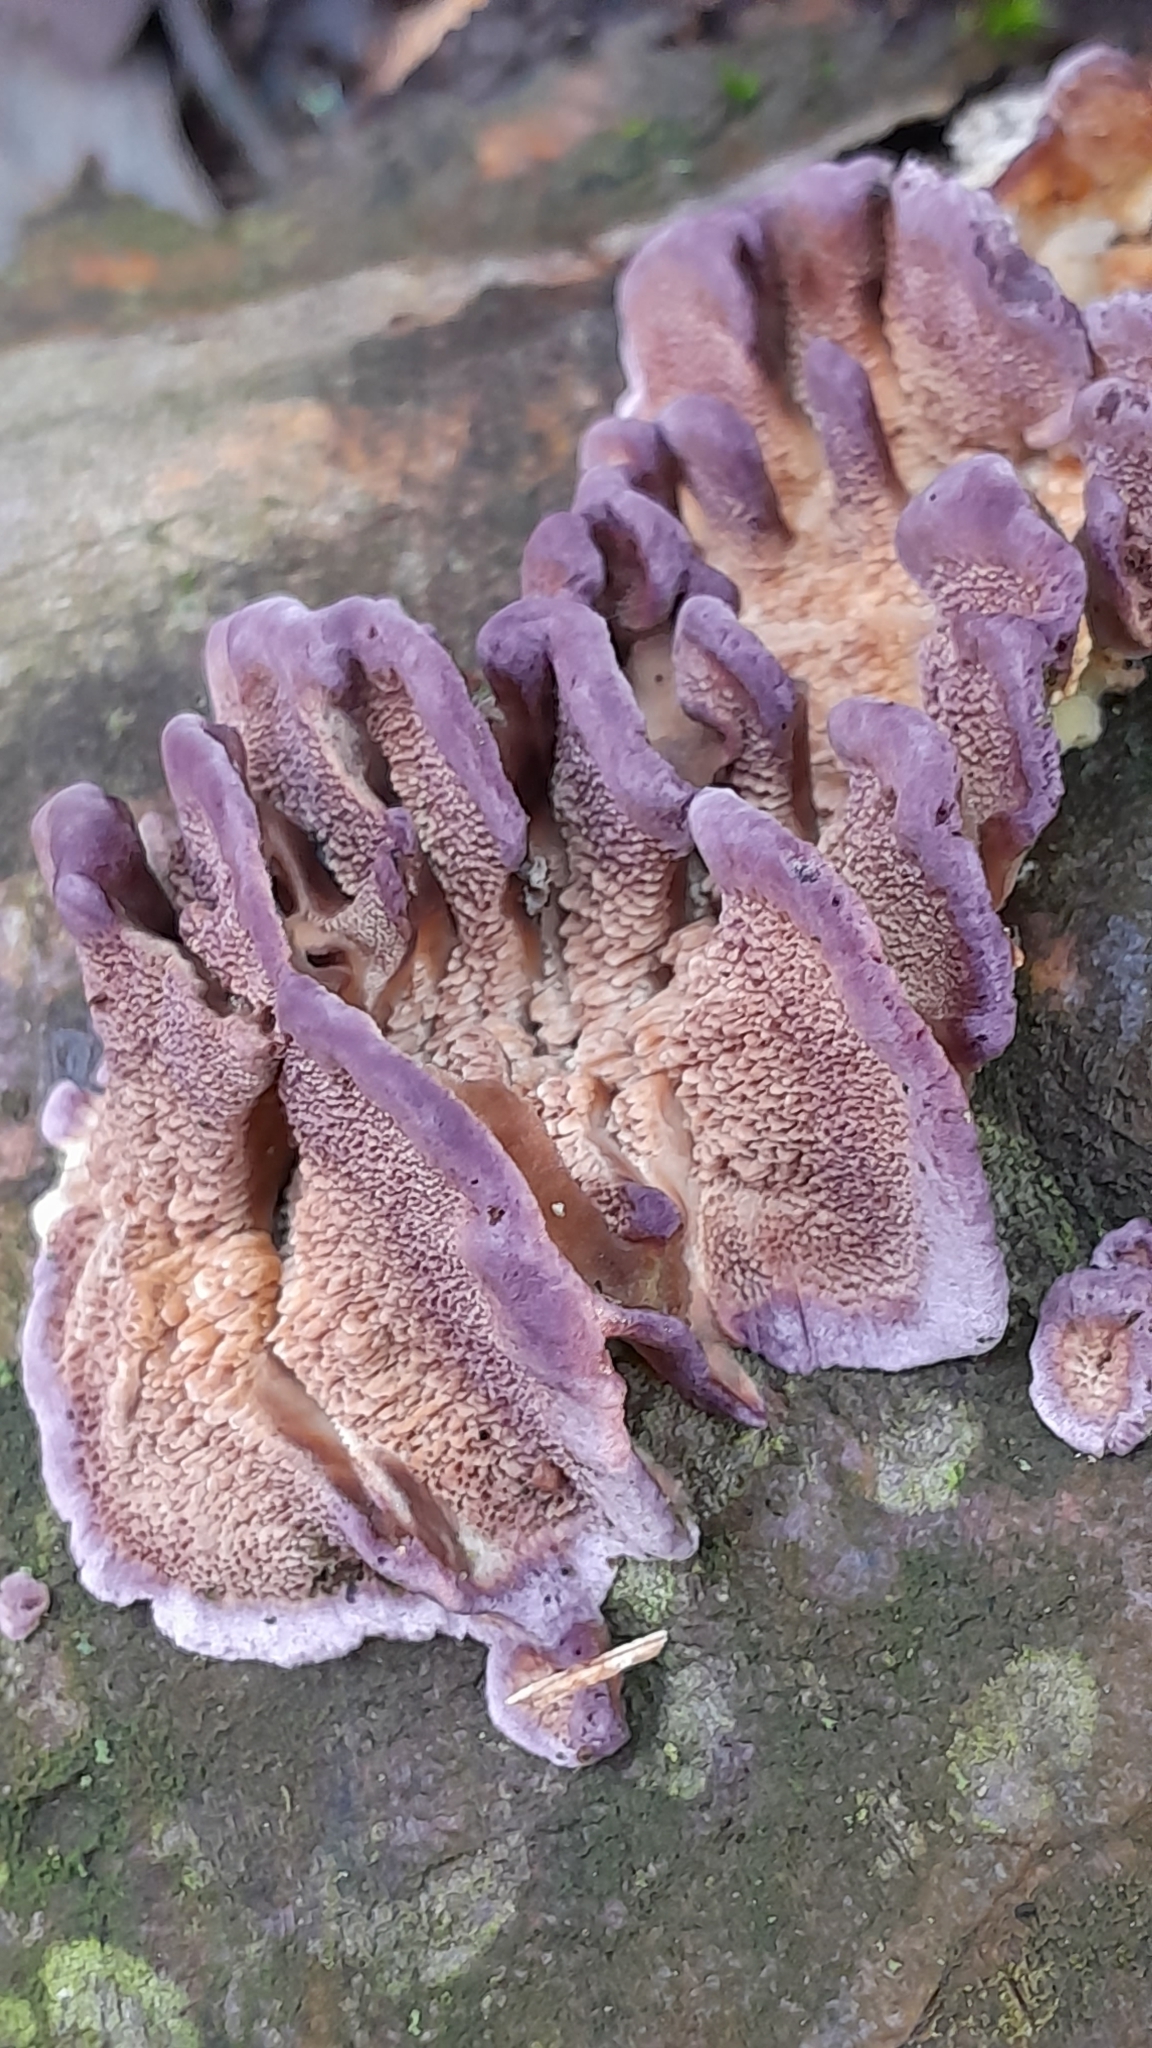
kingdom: Fungi
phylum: Basidiomycota
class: Agaricomycetes
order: Hymenochaetales
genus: Trichaptum
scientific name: Trichaptum biforme
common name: Violet-toothed polypore
